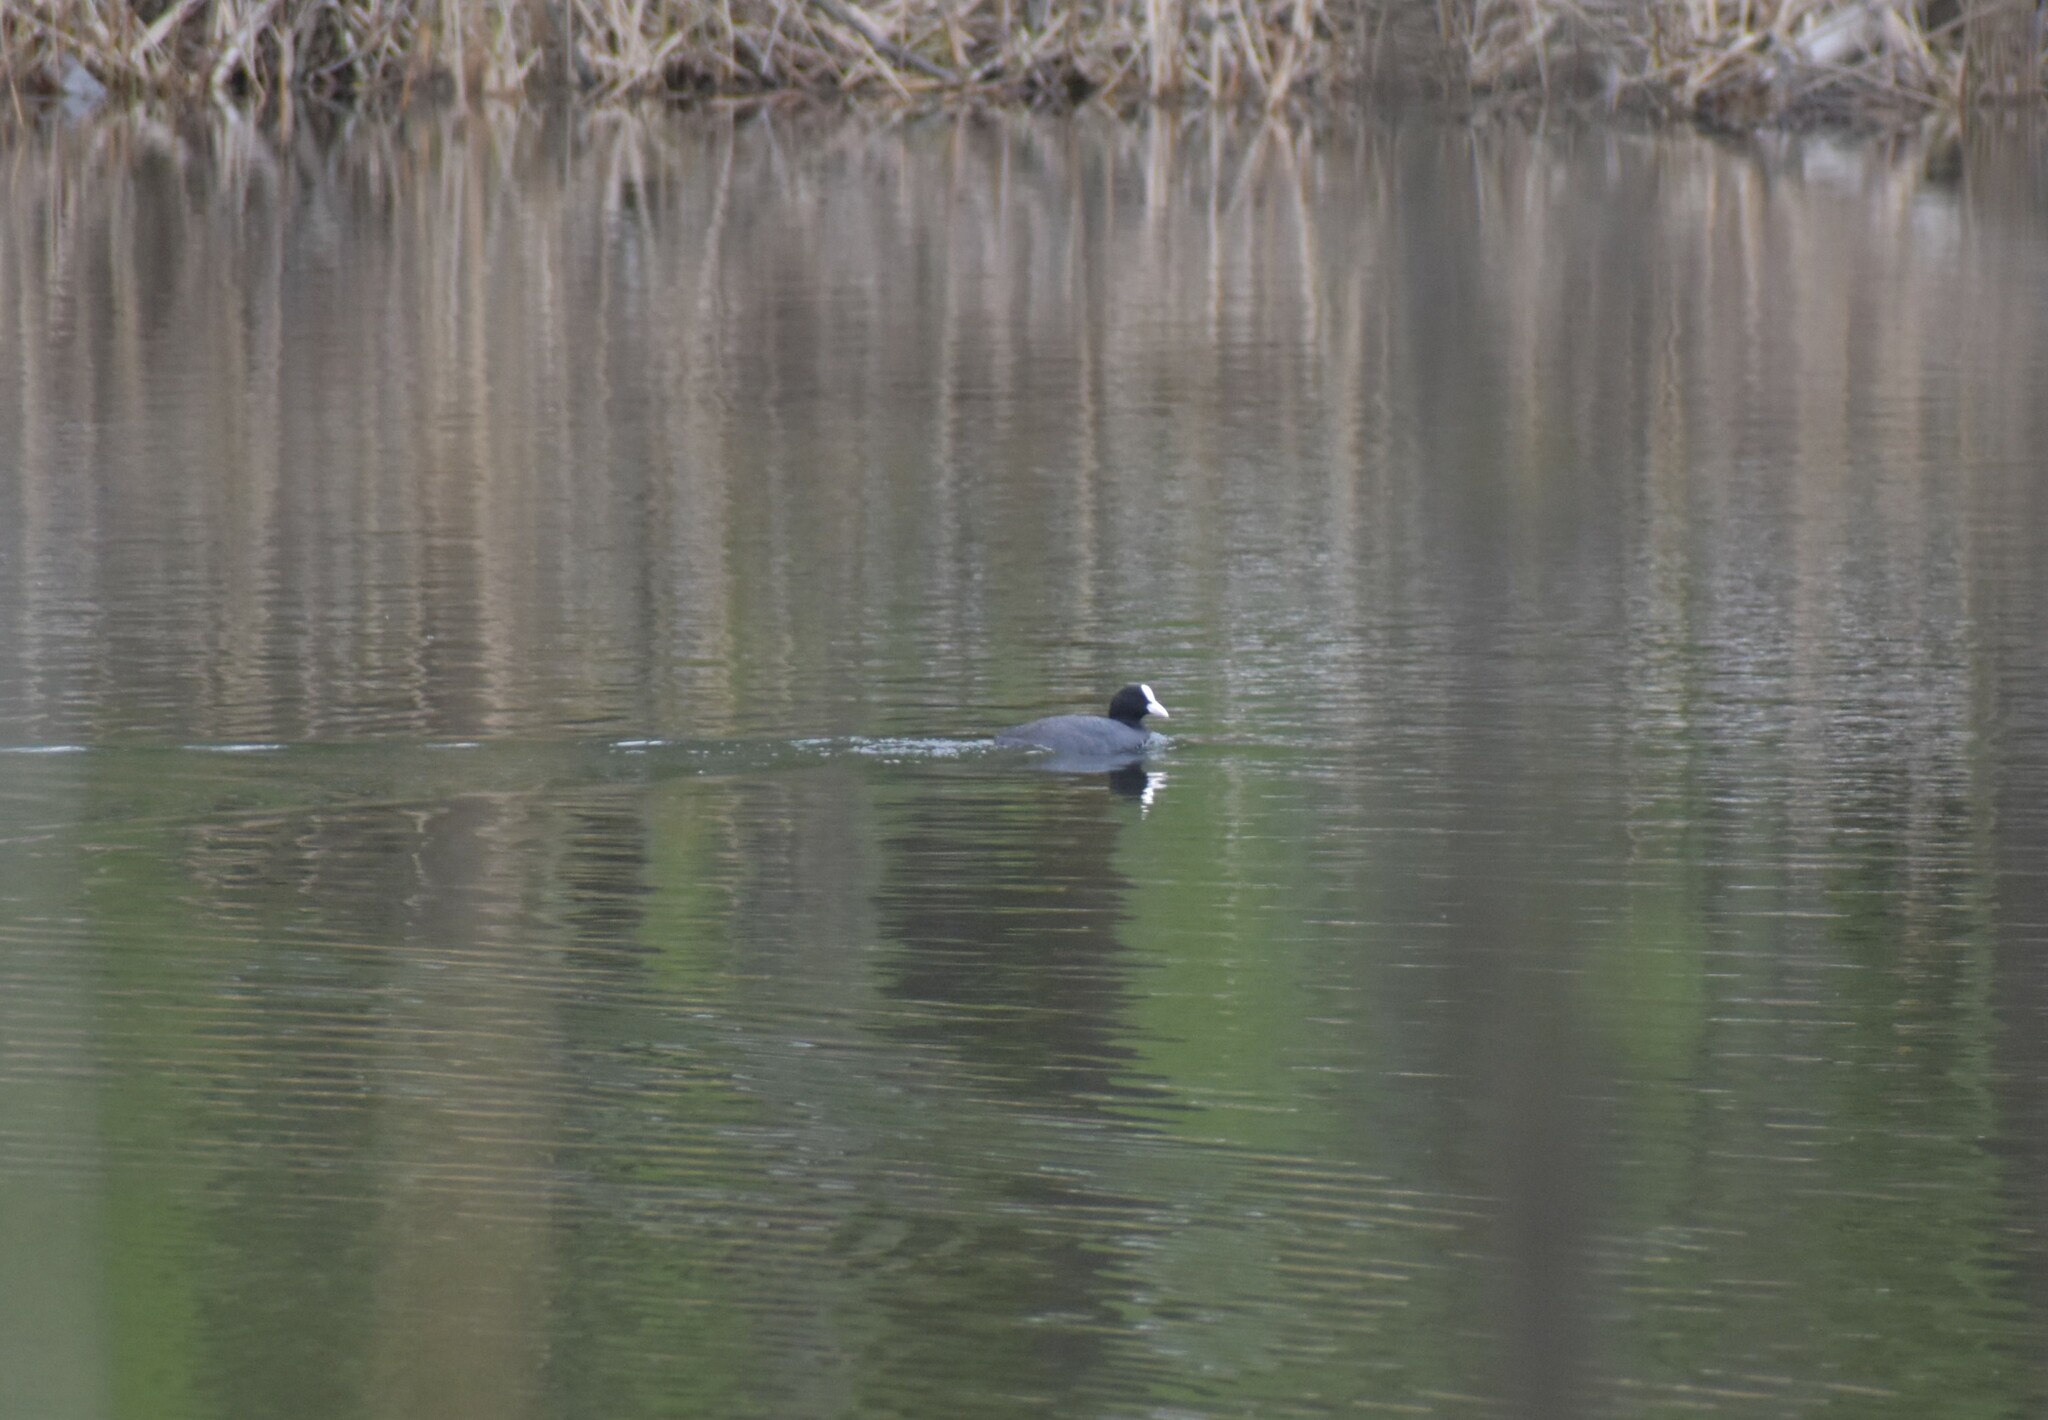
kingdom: Animalia
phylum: Chordata
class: Aves
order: Gruiformes
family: Rallidae
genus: Fulica
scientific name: Fulica atra
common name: Eurasian coot
